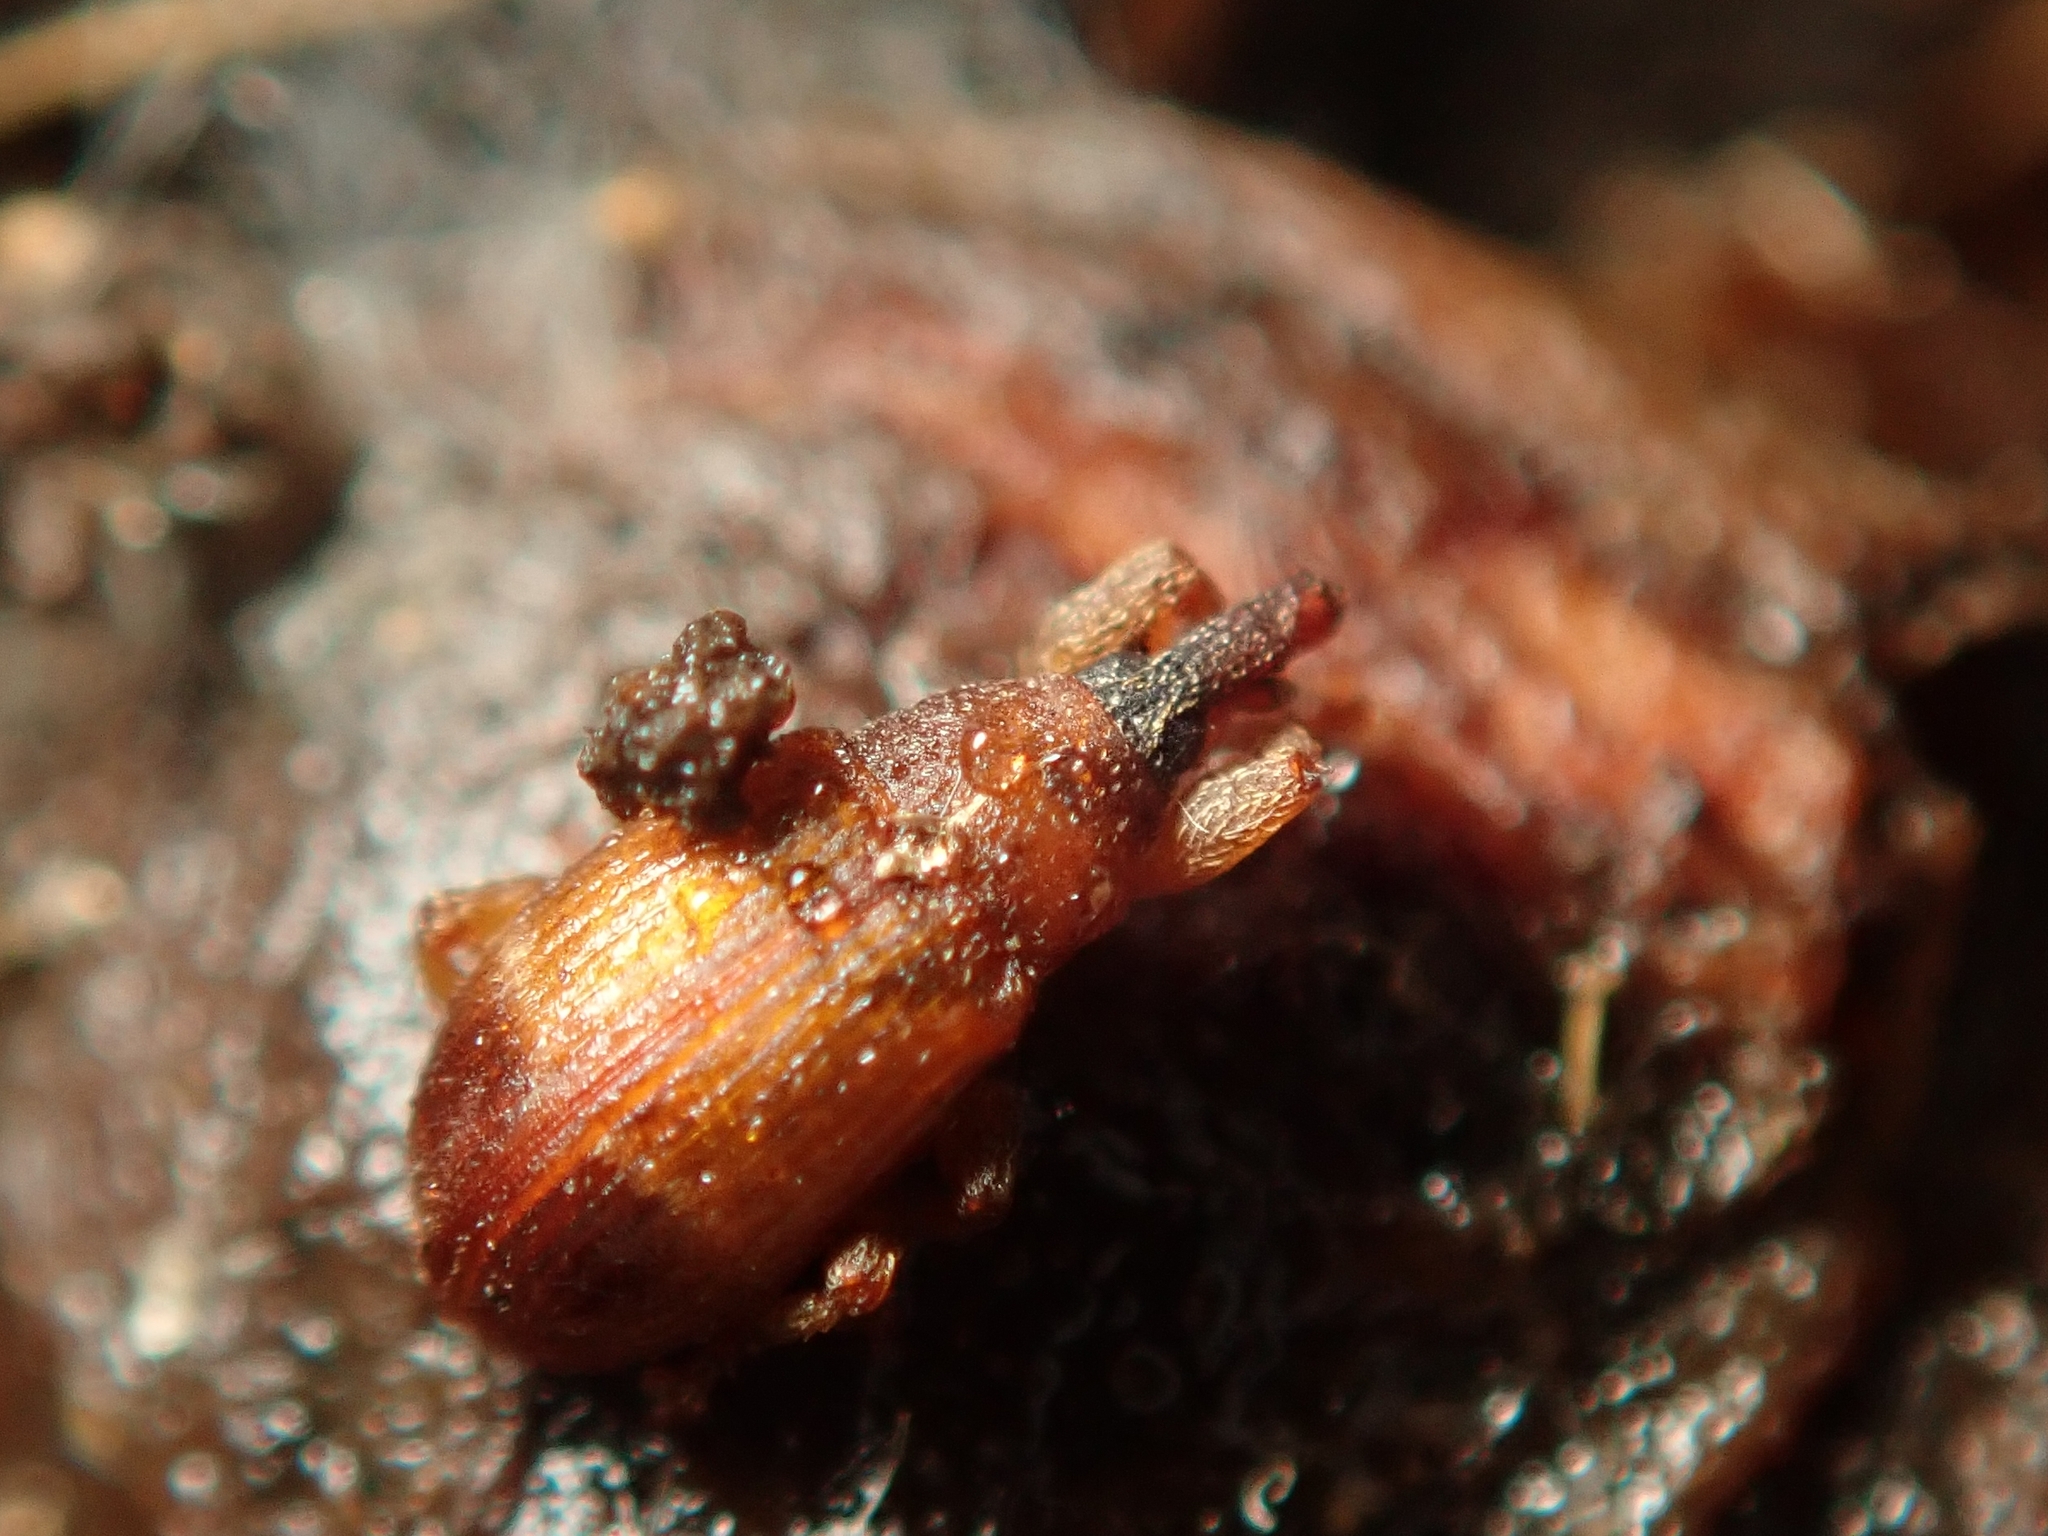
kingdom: Animalia
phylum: Arthropoda
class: Insecta
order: Coleoptera
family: Curculionidae
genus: Bradybatus
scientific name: Bradybatus fallax
